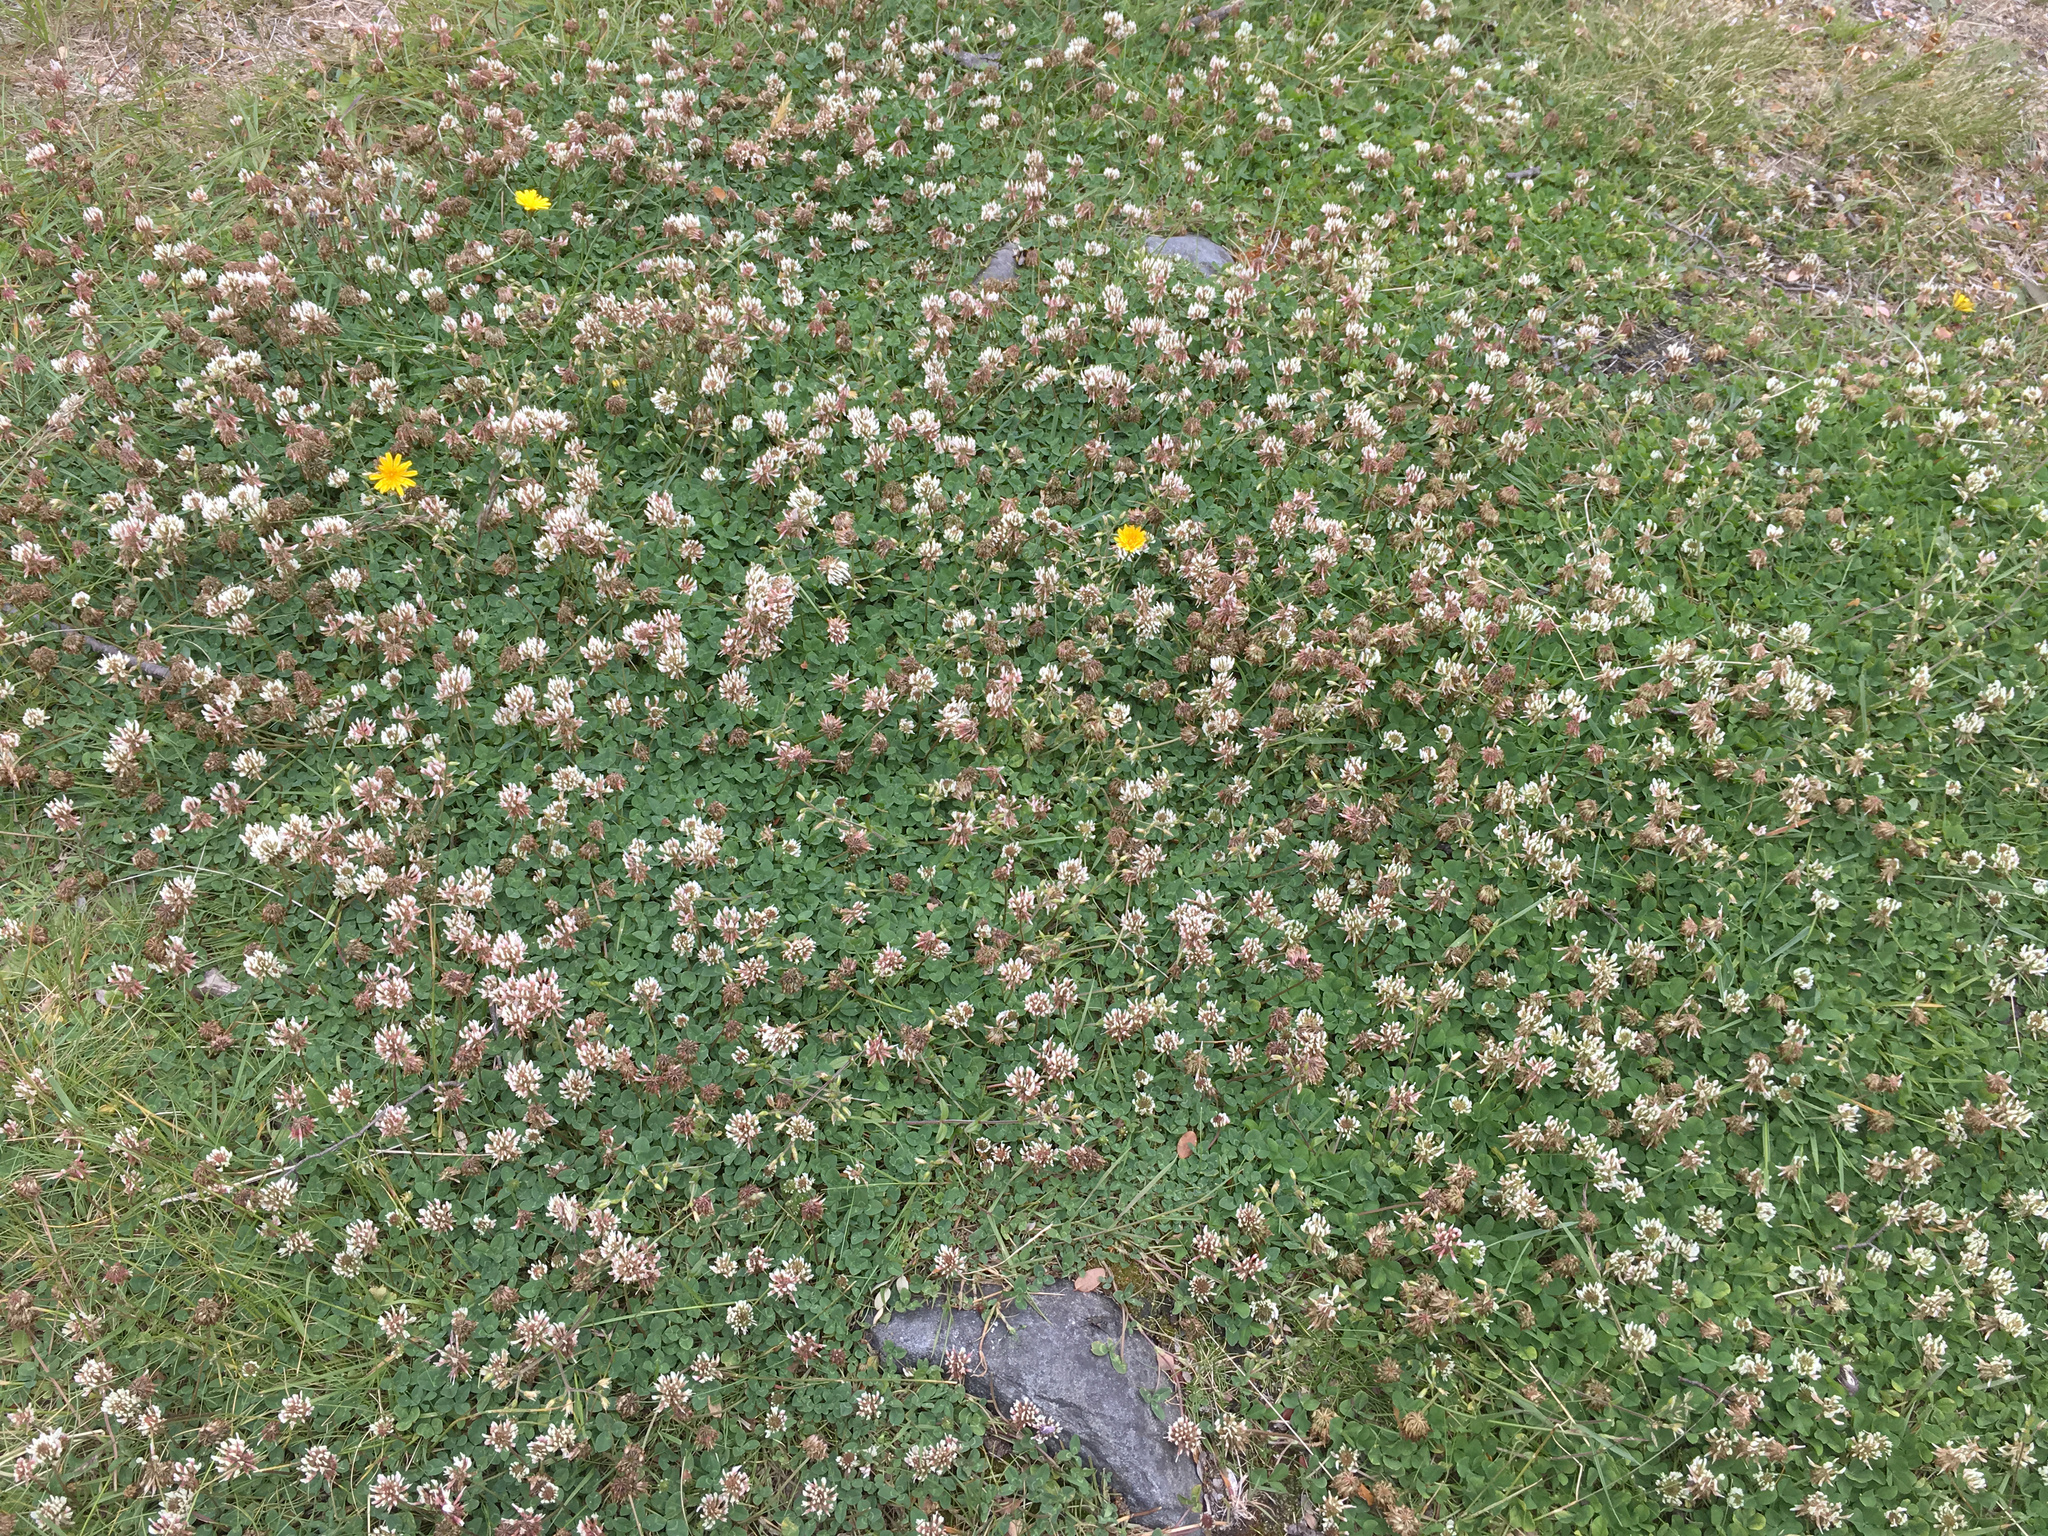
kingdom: Plantae
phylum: Tracheophyta
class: Magnoliopsida
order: Fabales
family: Fabaceae
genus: Trifolium
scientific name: Trifolium repens
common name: White clover
